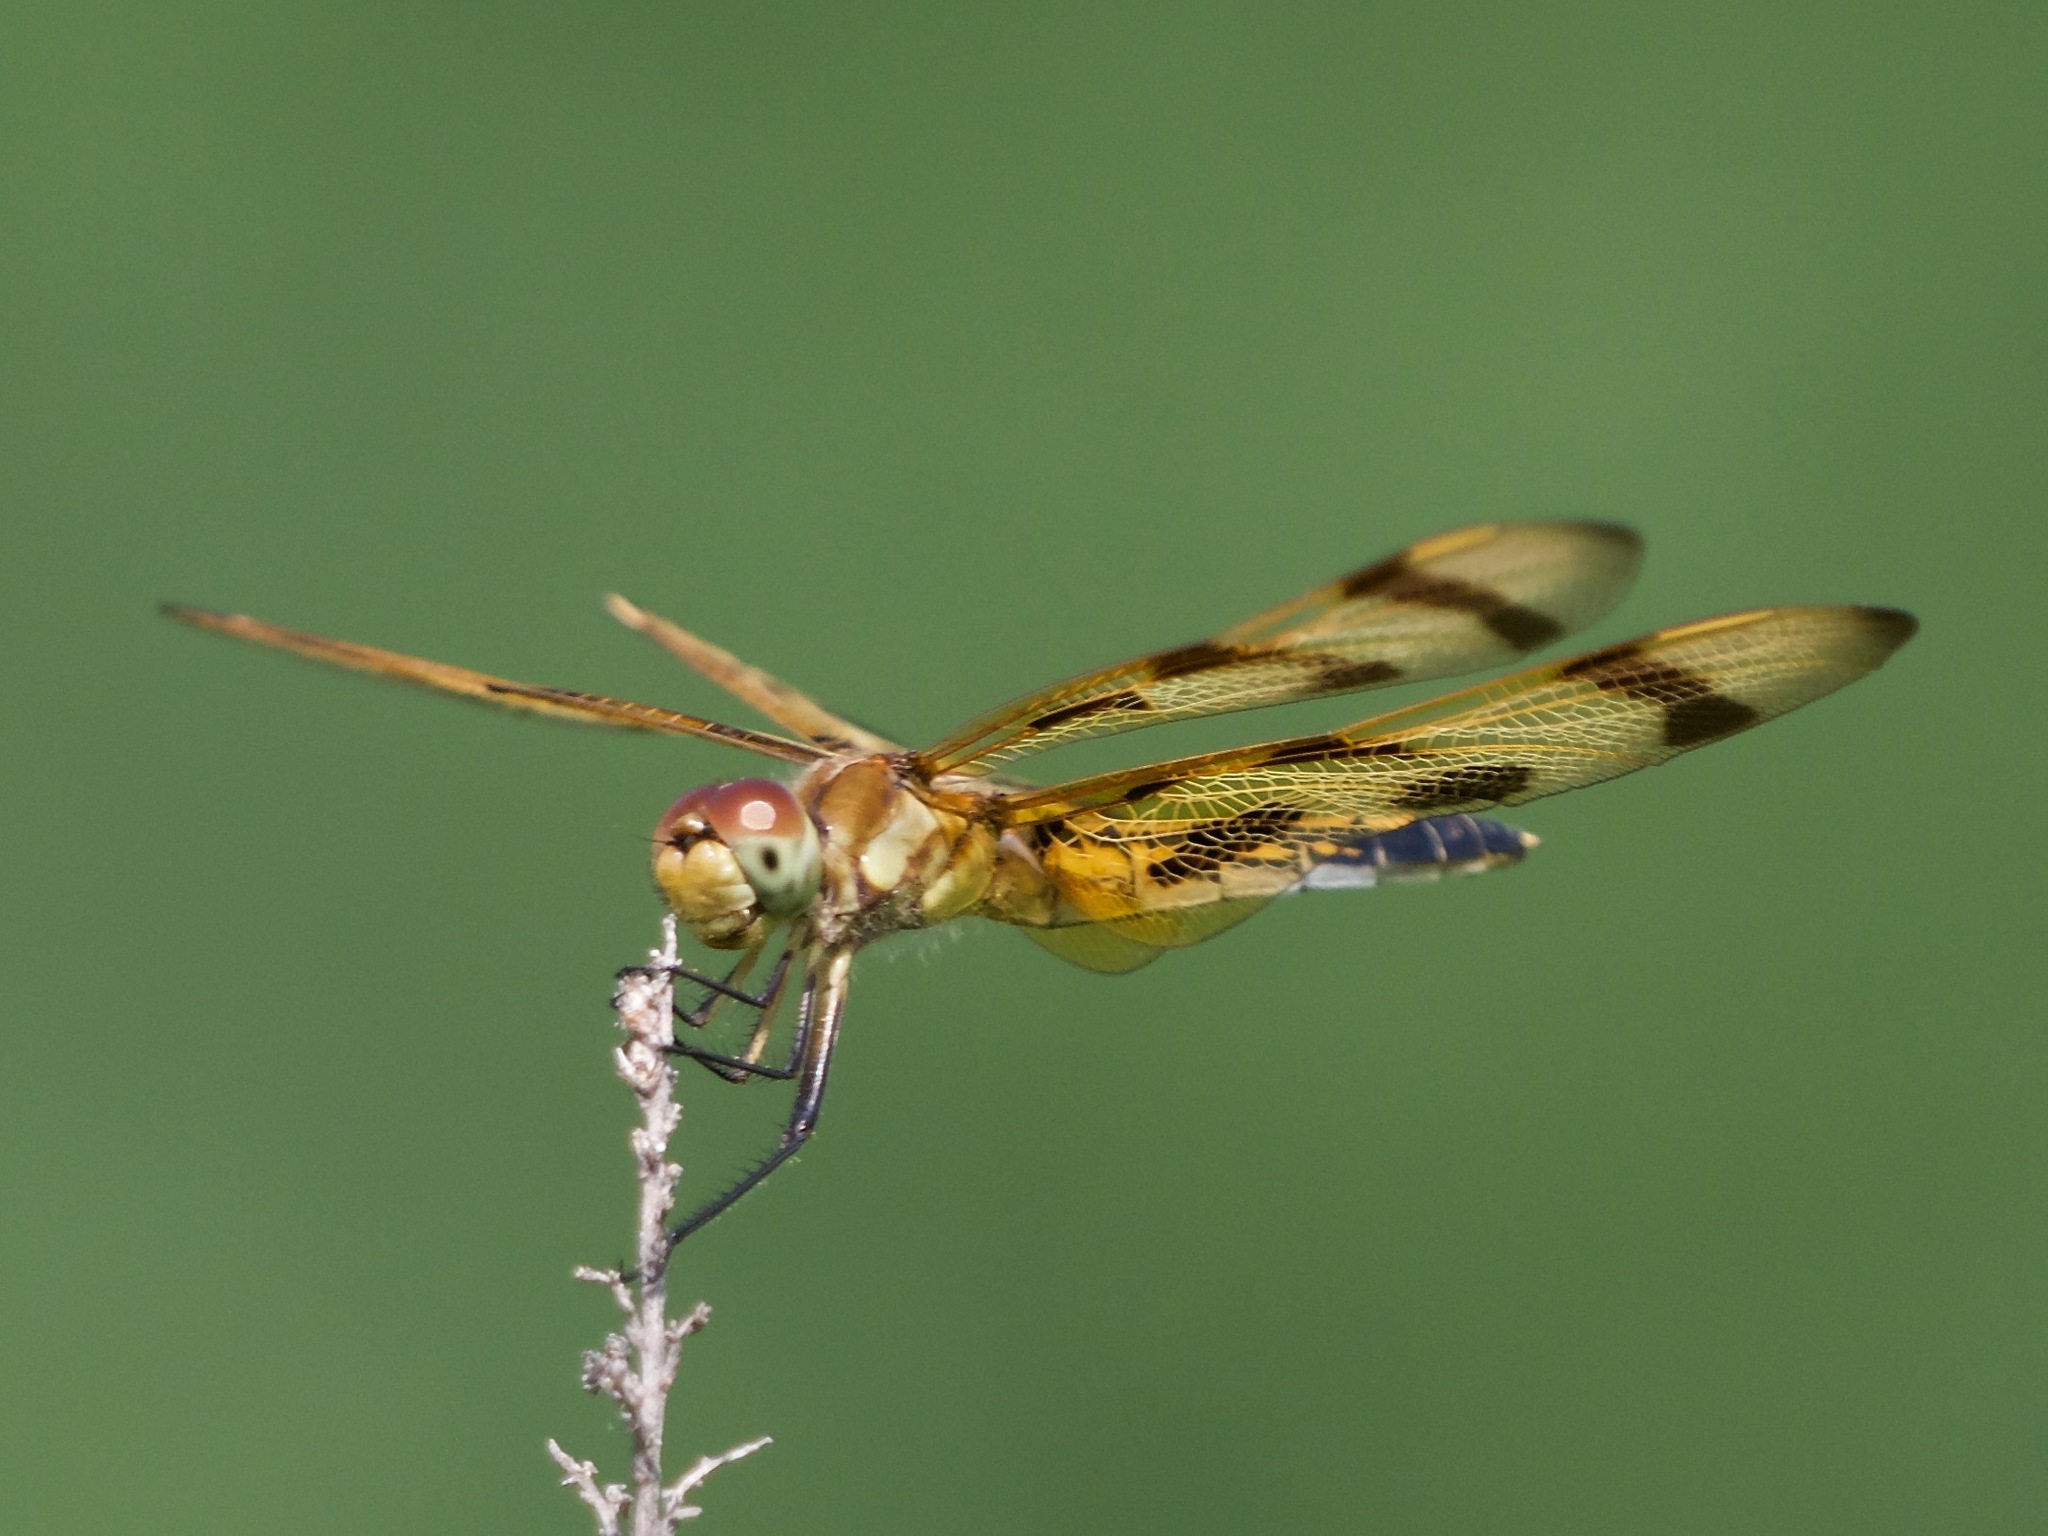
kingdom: Animalia
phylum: Arthropoda
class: Insecta
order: Odonata
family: Libellulidae
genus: Celithemis
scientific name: Celithemis eponina
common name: Halloween pennant
